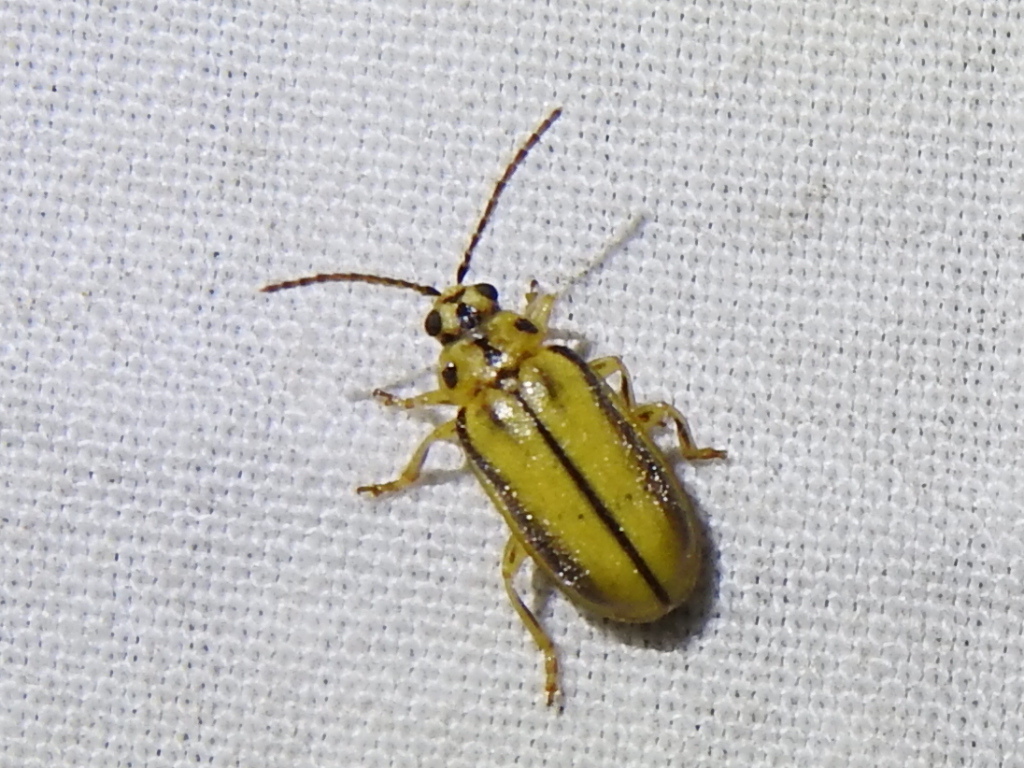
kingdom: Animalia
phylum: Arthropoda
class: Insecta
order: Coleoptera
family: Chrysomelidae
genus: Xanthogaleruca
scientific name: Xanthogaleruca luteola
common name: Elm leaf beetle
